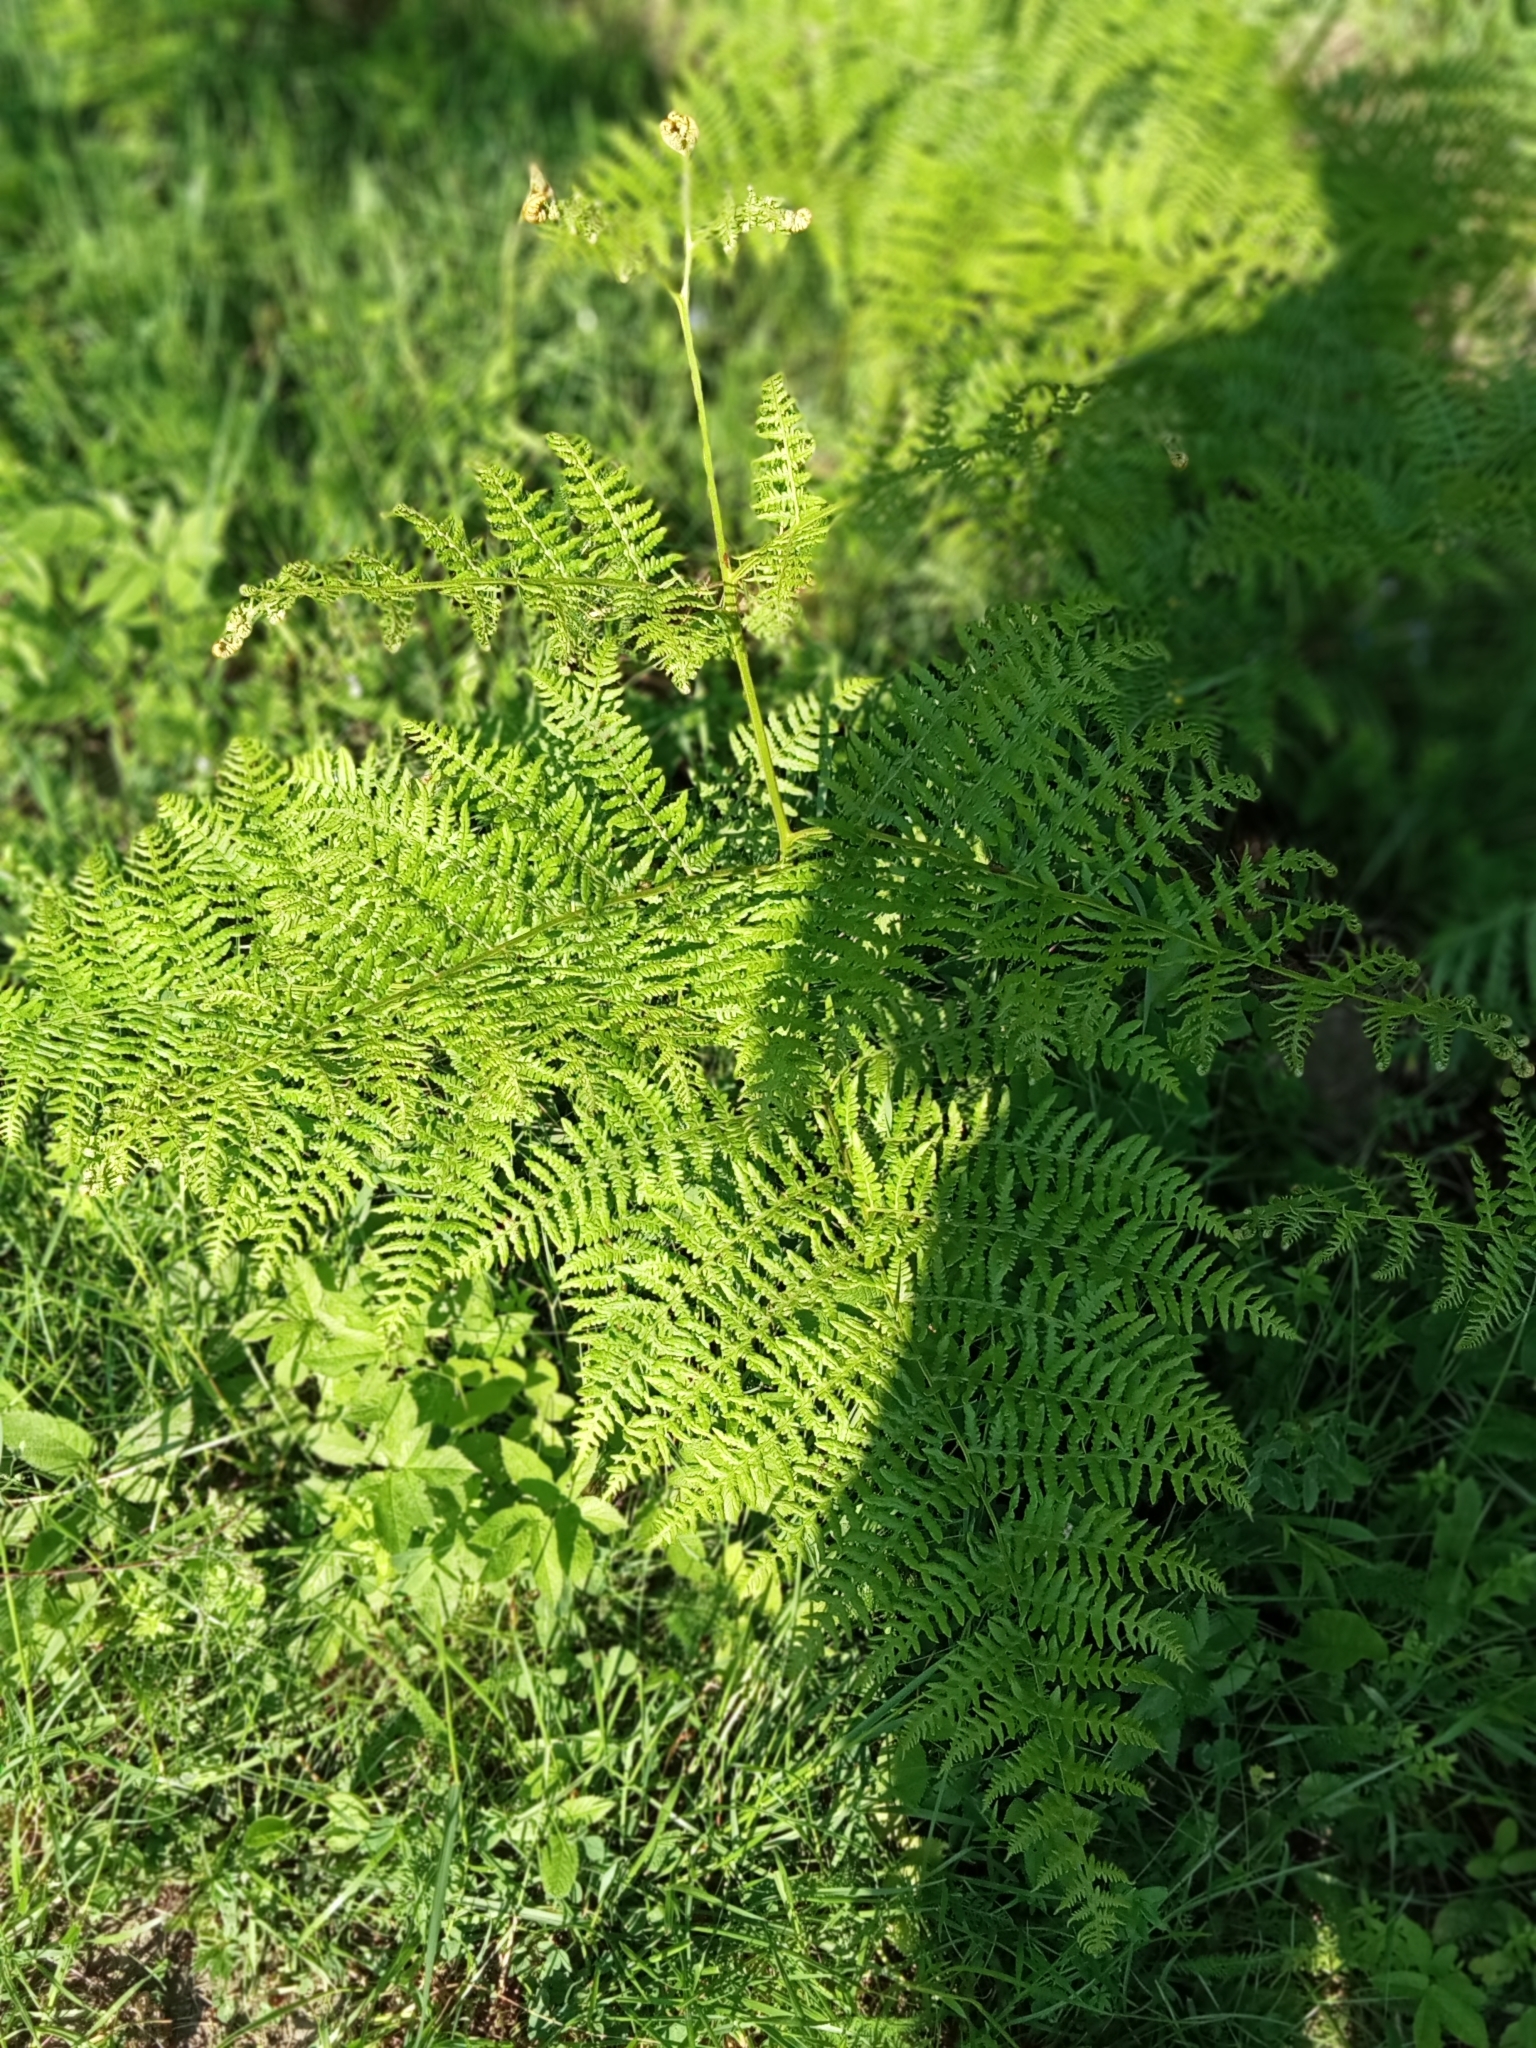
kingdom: Plantae
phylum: Tracheophyta
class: Polypodiopsida
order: Polypodiales
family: Dennstaedtiaceae
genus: Pteridium
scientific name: Pteridium aquilinum
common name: Bracken
